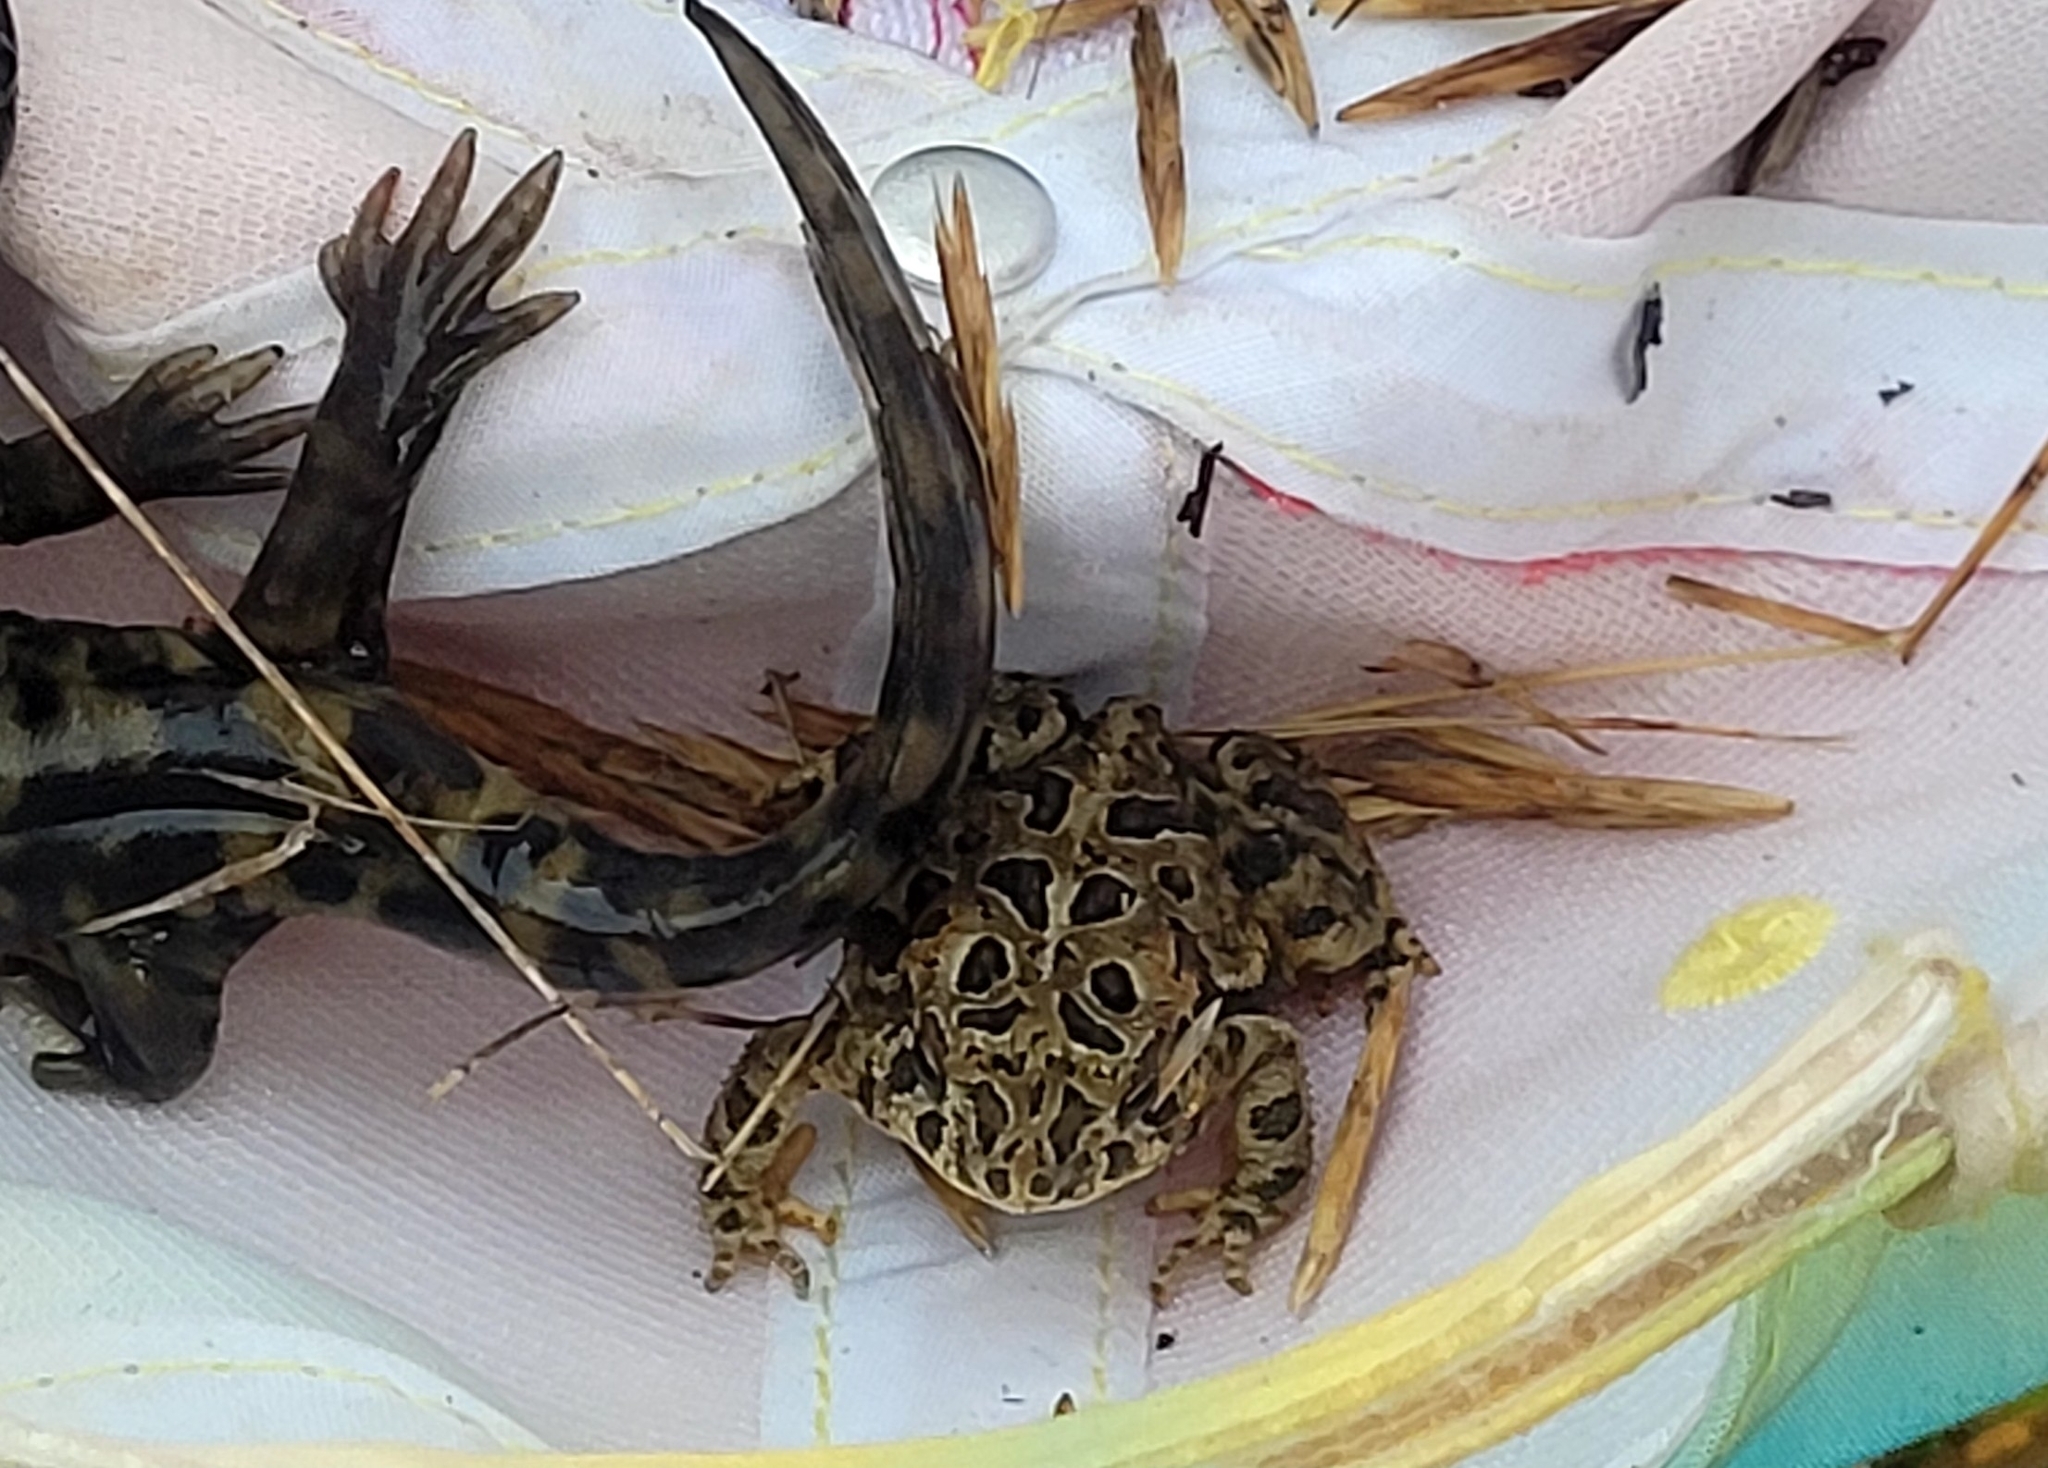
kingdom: Animalia
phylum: Chordata
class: Amphibia
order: Anura
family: Bufonidae
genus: Anaxyrus
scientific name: Anaxyrus hemiophrys
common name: Canadian toad
